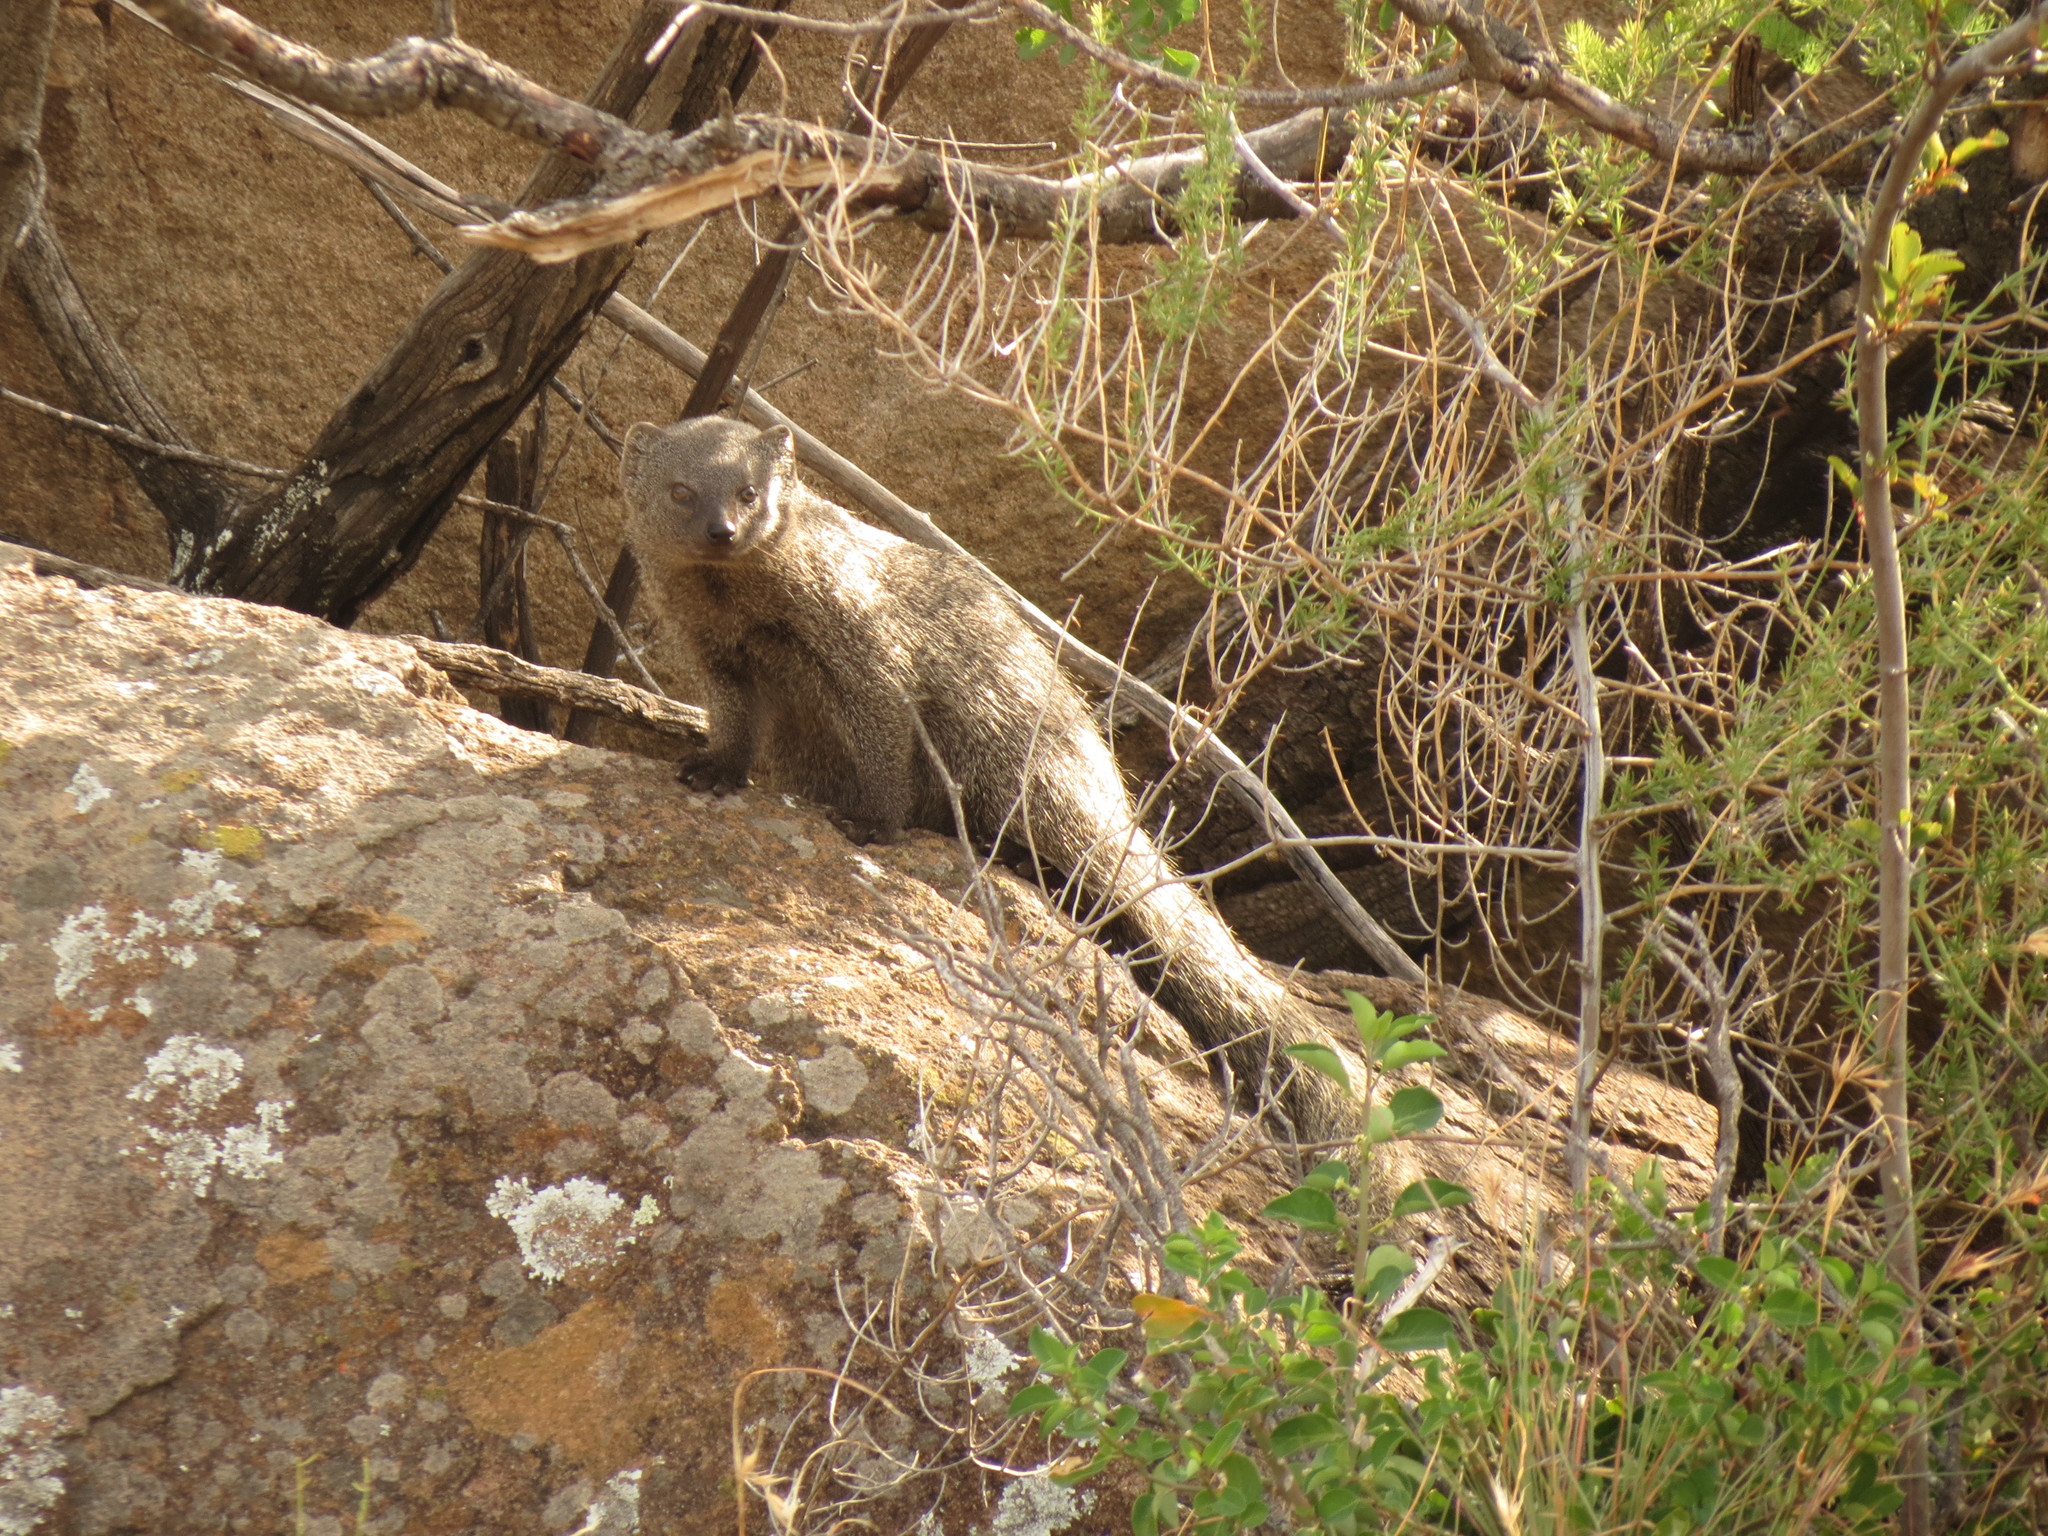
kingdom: Animalia
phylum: Chordata
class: Mammalia
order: Carnivora
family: Herpestidae
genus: Galerella
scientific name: Galerella pulverulenta
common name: Cape gray mongoose
